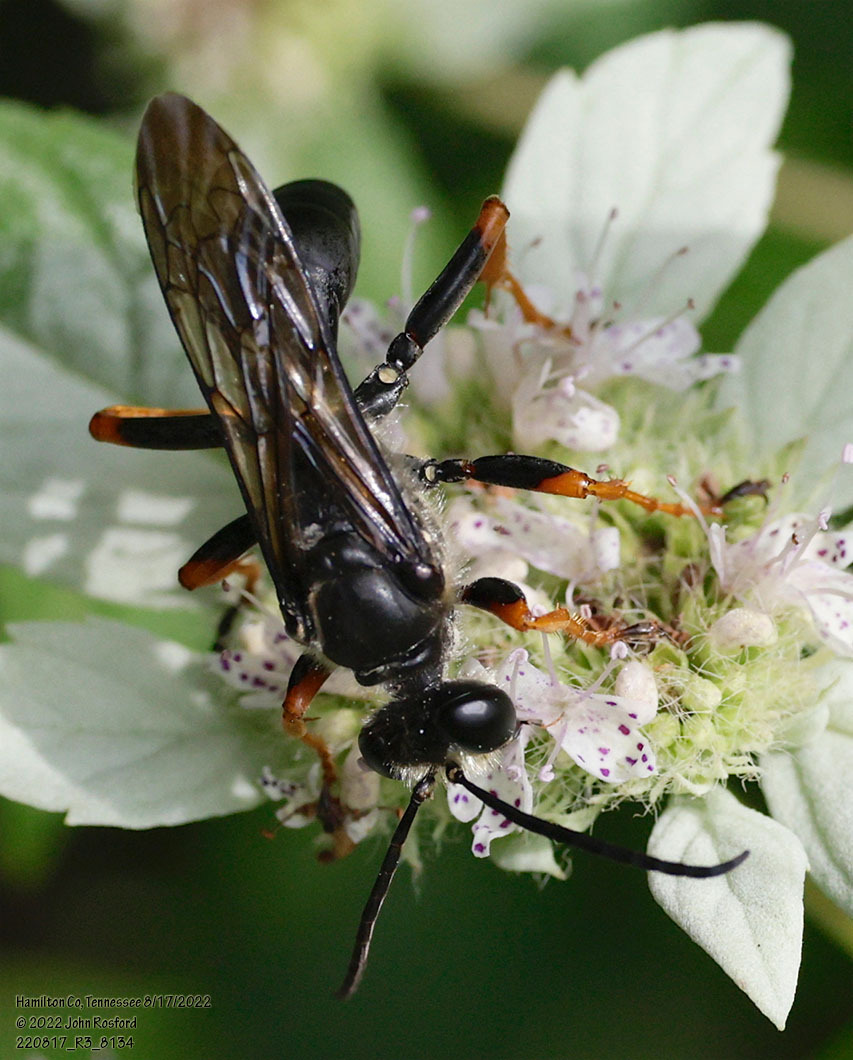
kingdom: Animalia
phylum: Arthropoda
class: Insecta
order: Hymenoptera
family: Sphecidae
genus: Sphex
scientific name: Sphex nudus
